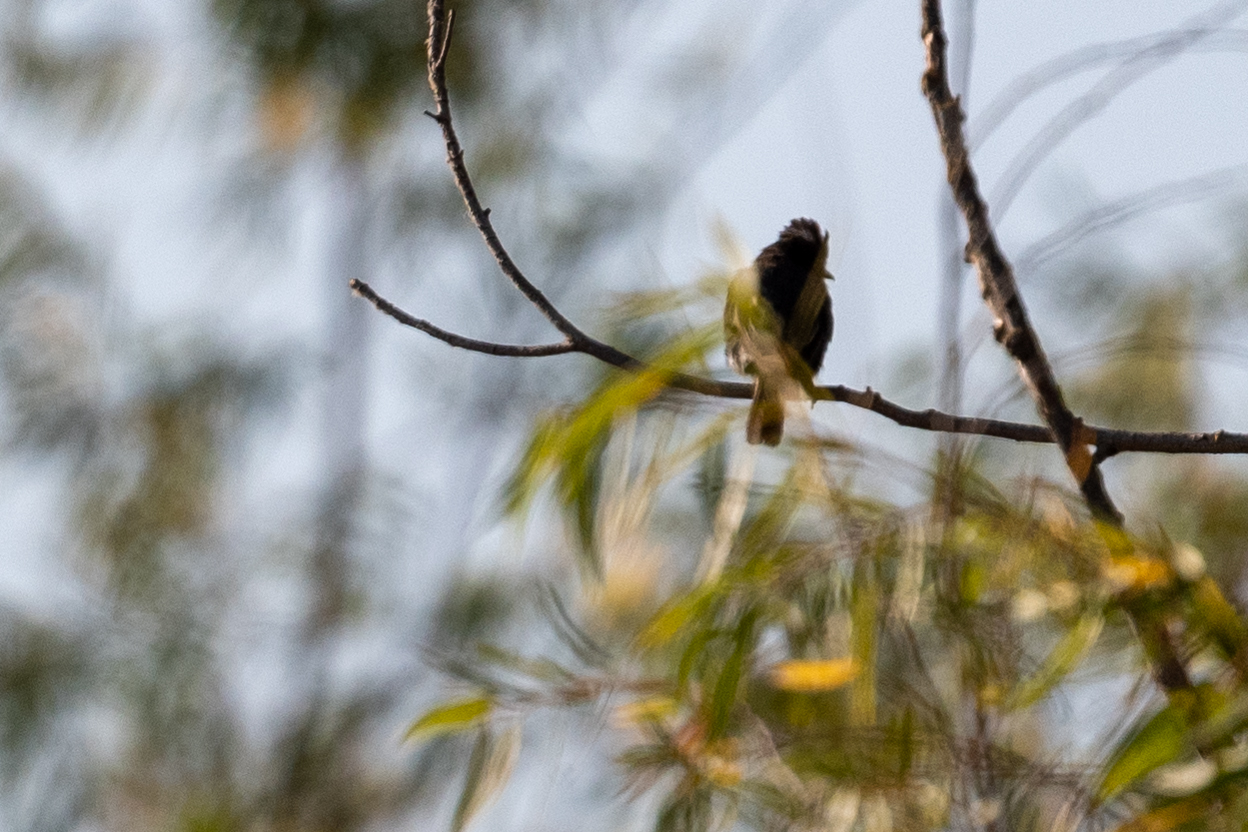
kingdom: Animalia
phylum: Chordata
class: Aves
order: Passeriformes
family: Tyrannidae
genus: Sayornis
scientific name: Sayornis nigricans
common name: Black phoebe
